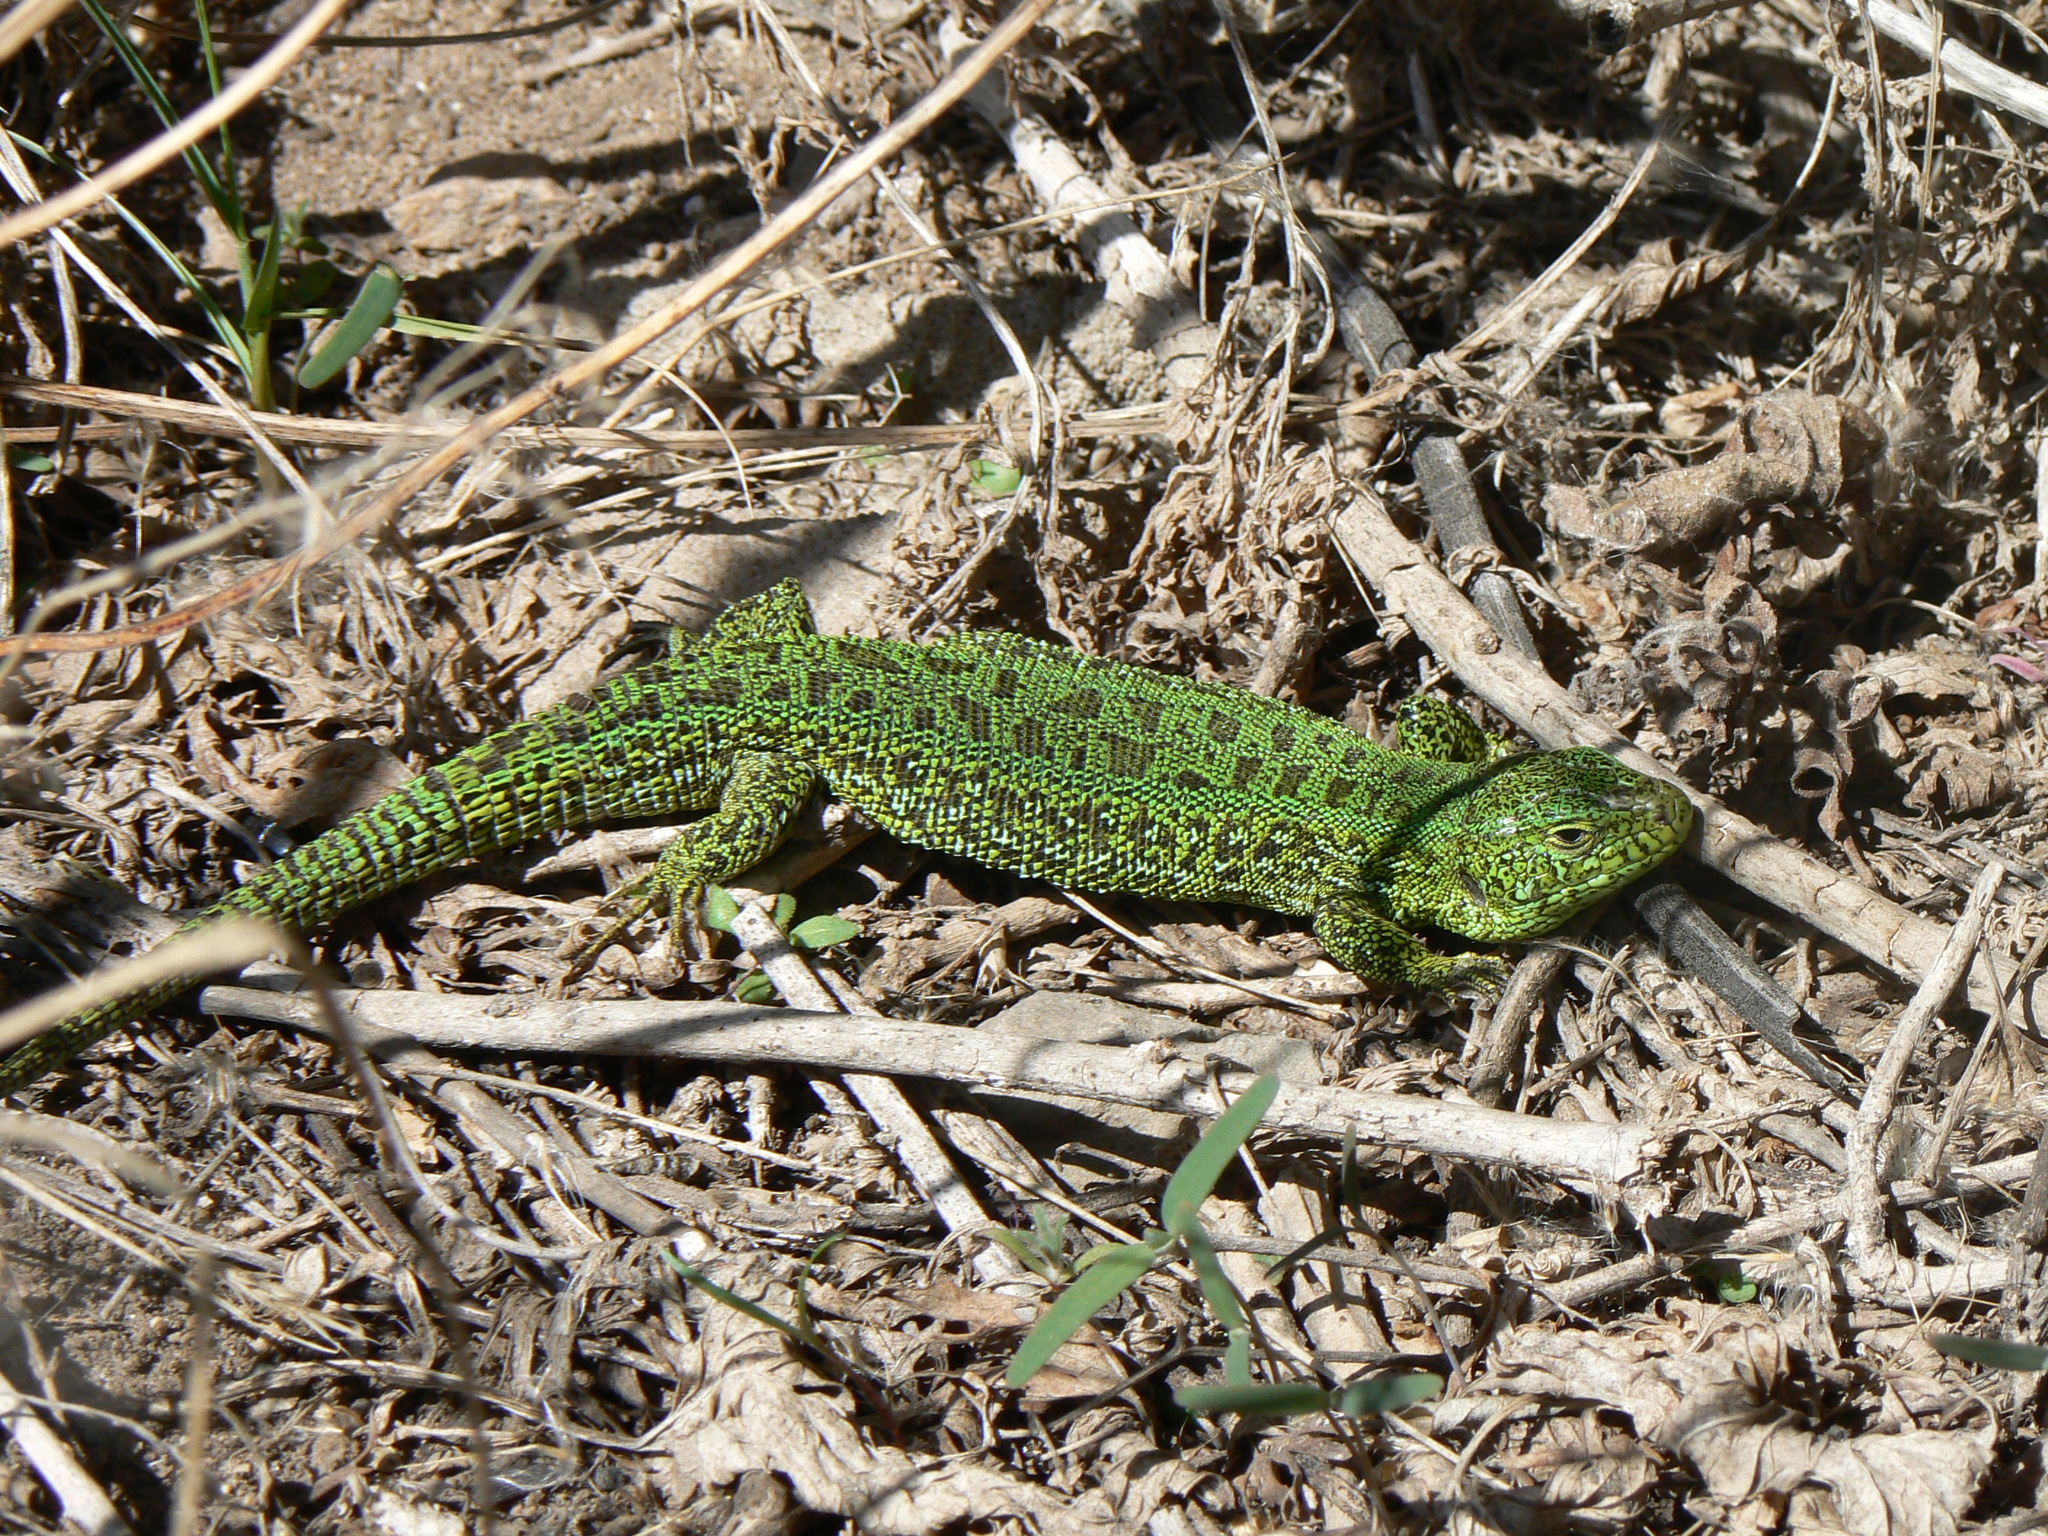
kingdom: Animalia
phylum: Chordata
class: Squamata
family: Lacertidae
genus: Lacerta
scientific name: Lacerta agilis
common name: Sand lizard
